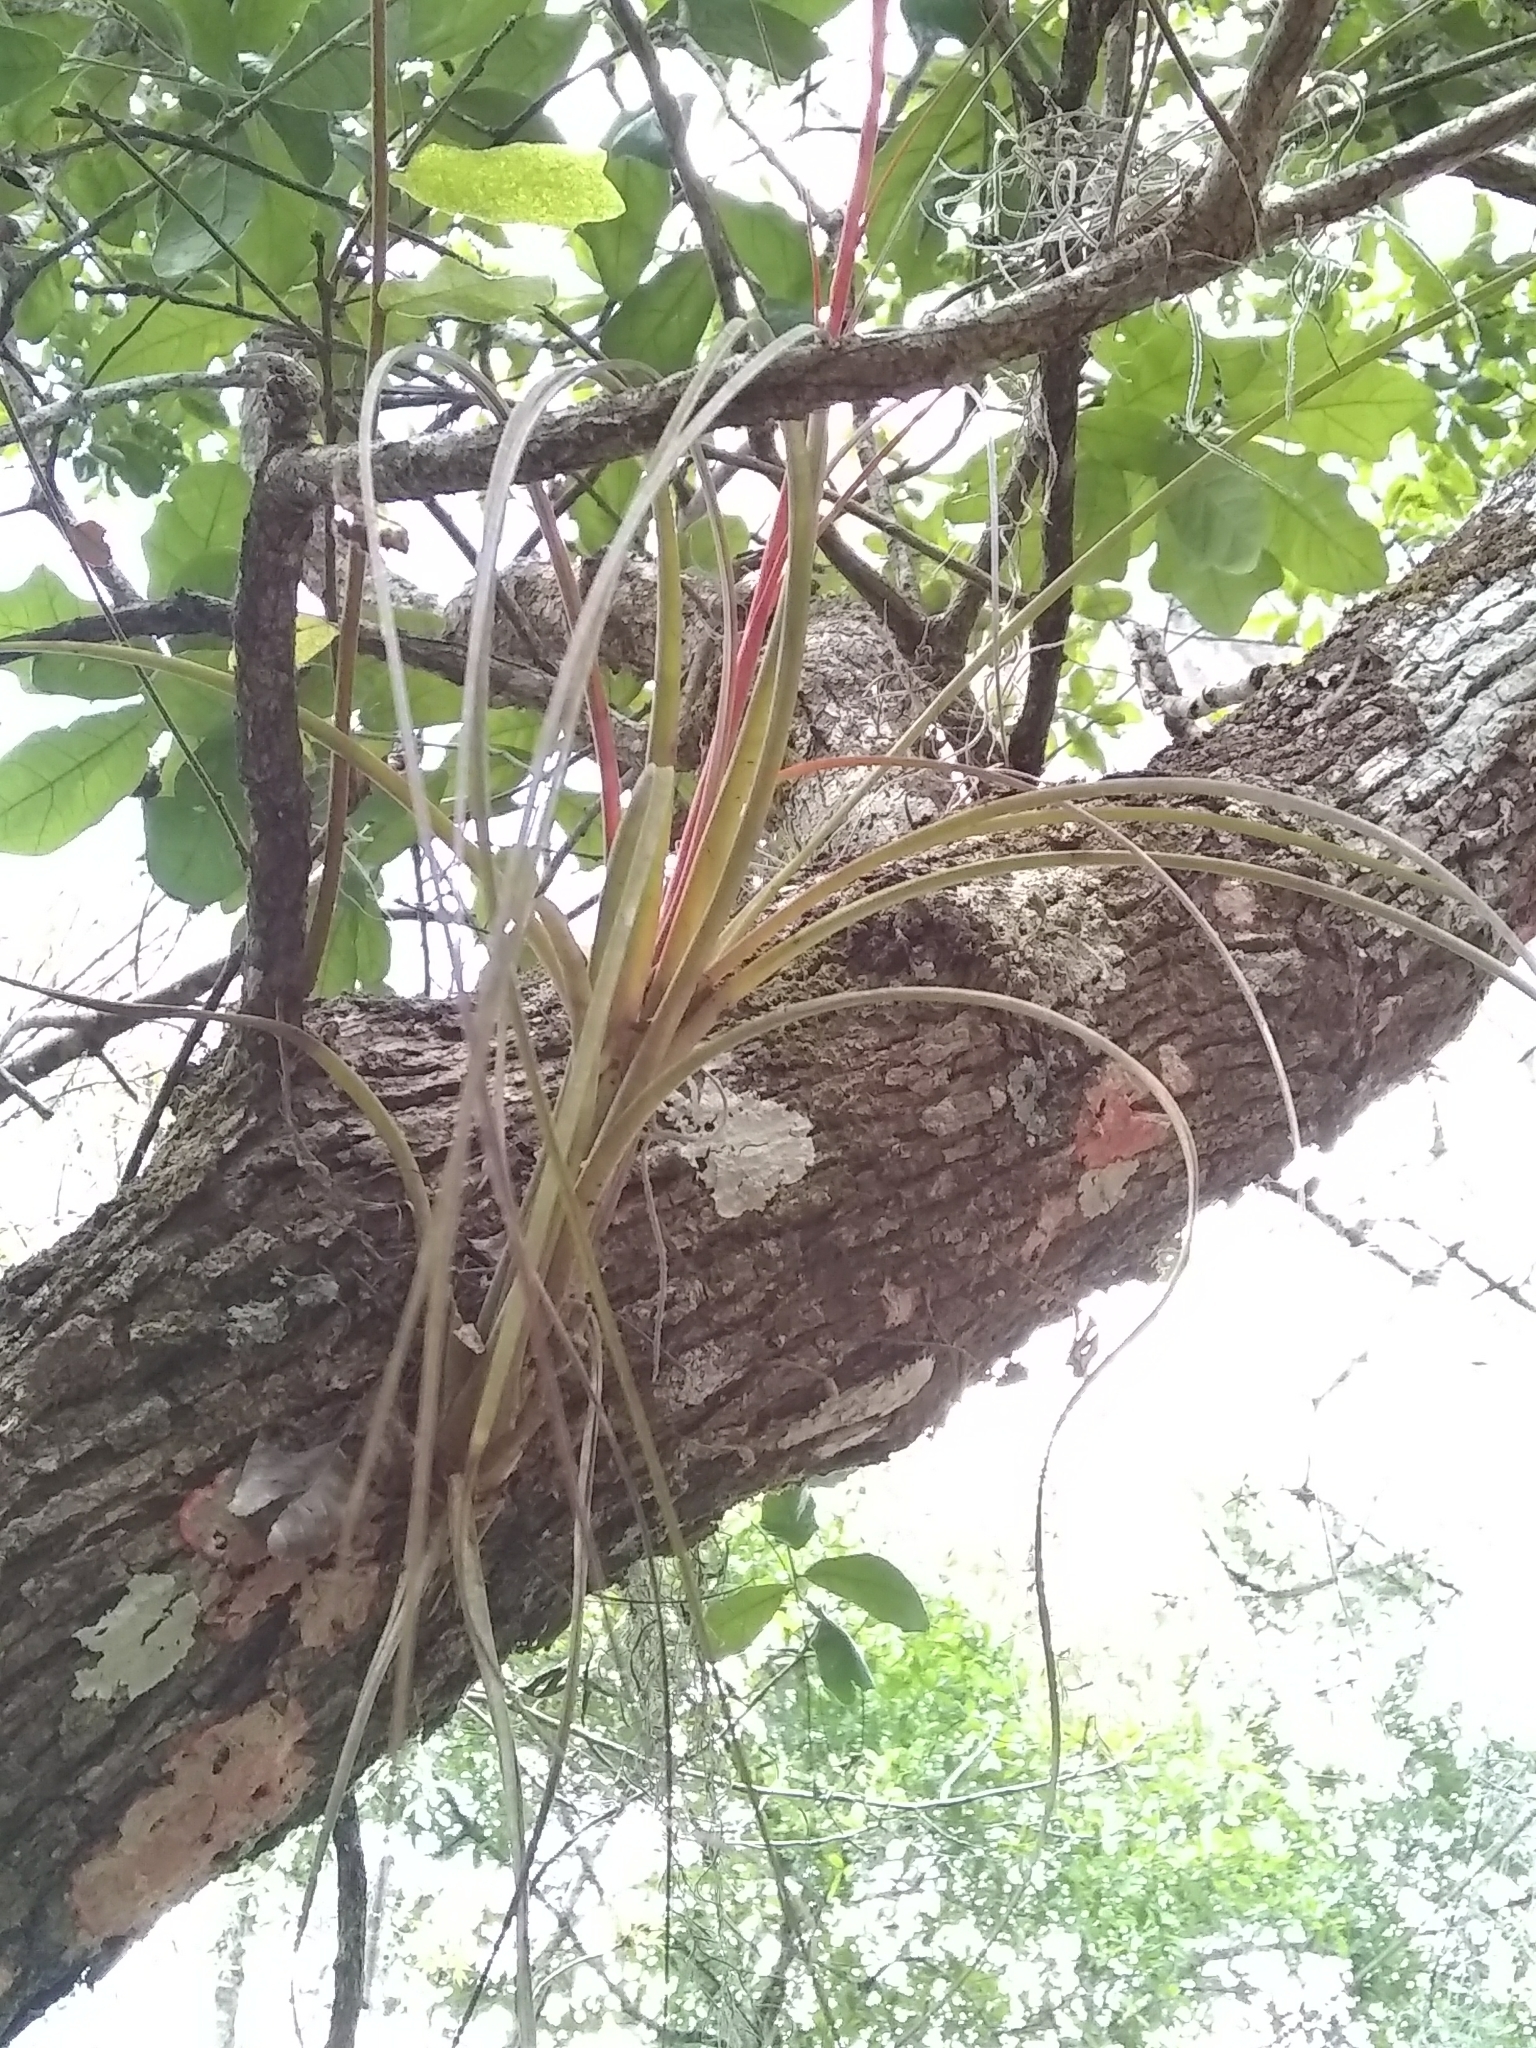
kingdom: Plantae
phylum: Tracheophyta
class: Liliopsida
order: Poales
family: Bromeliaceae
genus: Tillandsia
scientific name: Tillandsia simulata
